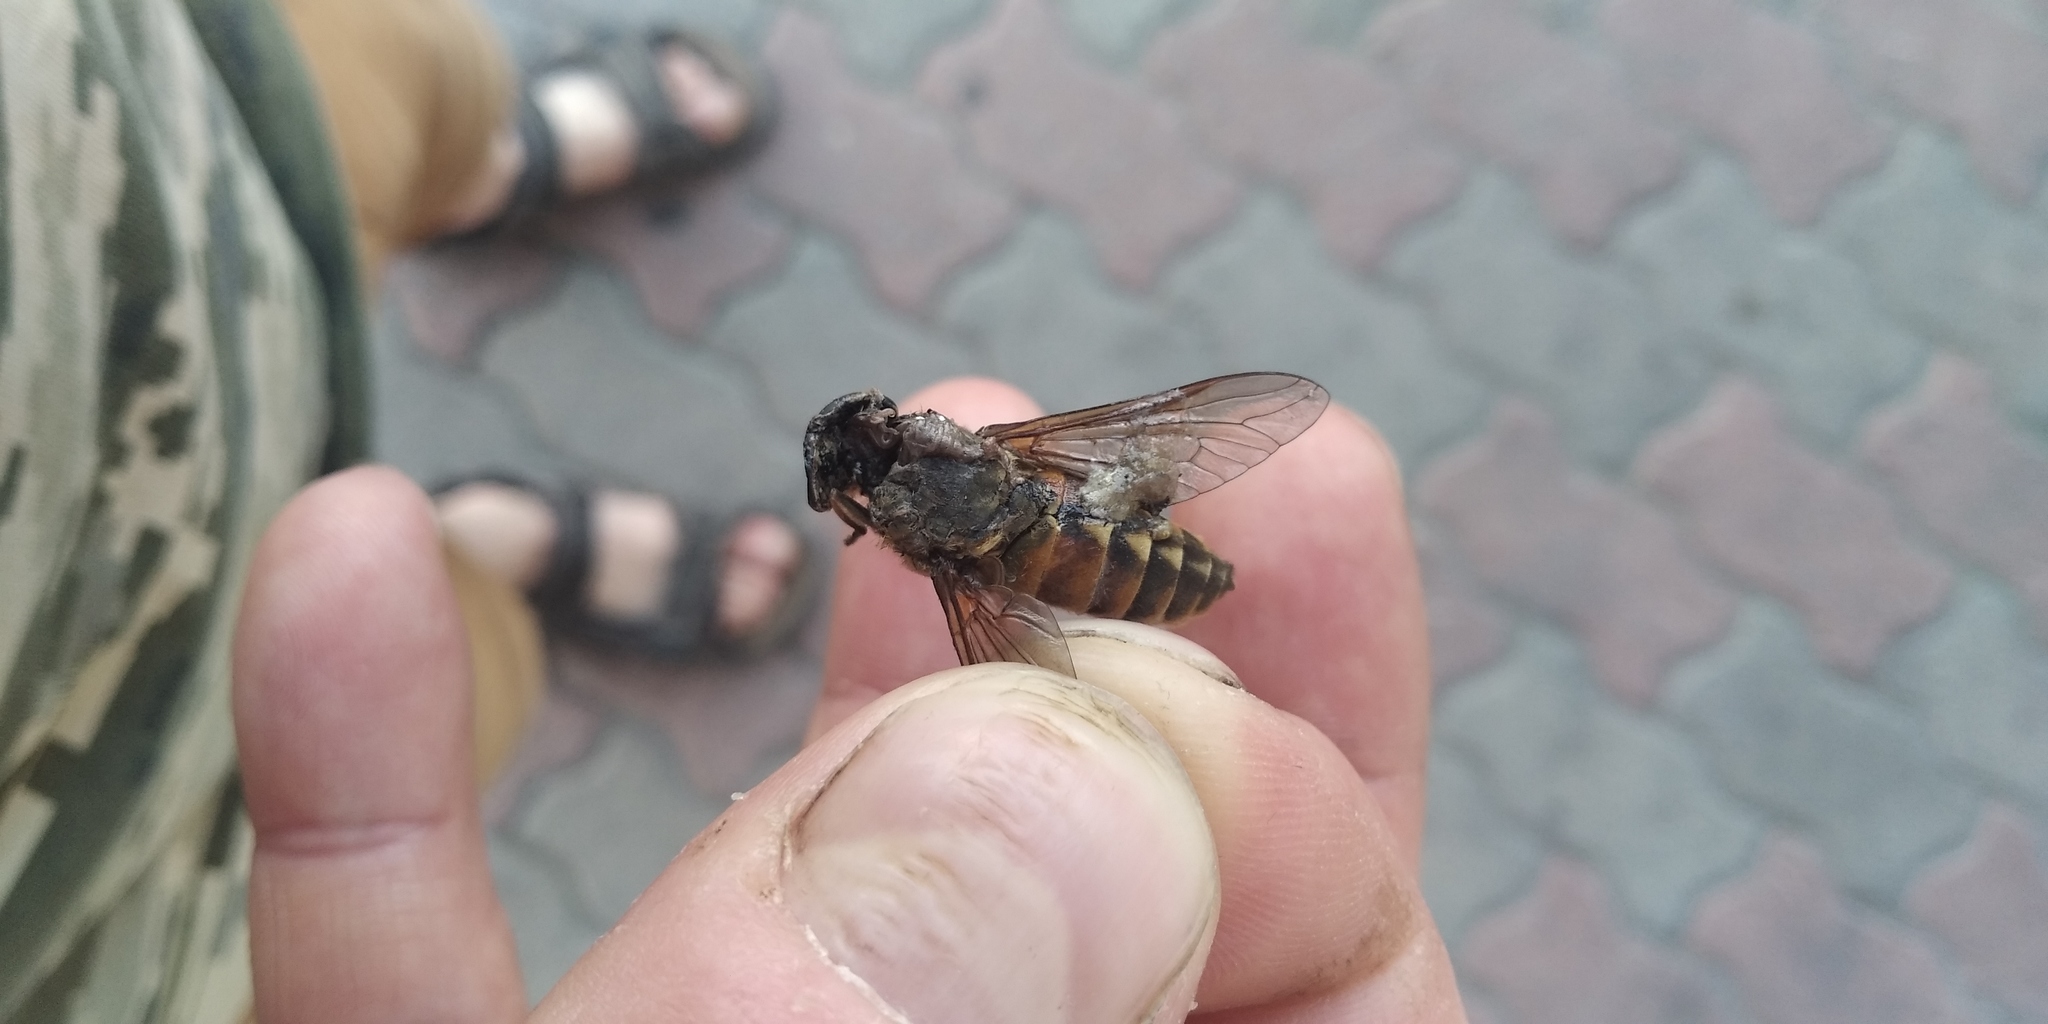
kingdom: Animalia
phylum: Arthropoda
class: Insecta
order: Diptera
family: Tabanidae
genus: Tabanus
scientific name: Tabanus bovinus
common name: Pale giant horsefly
